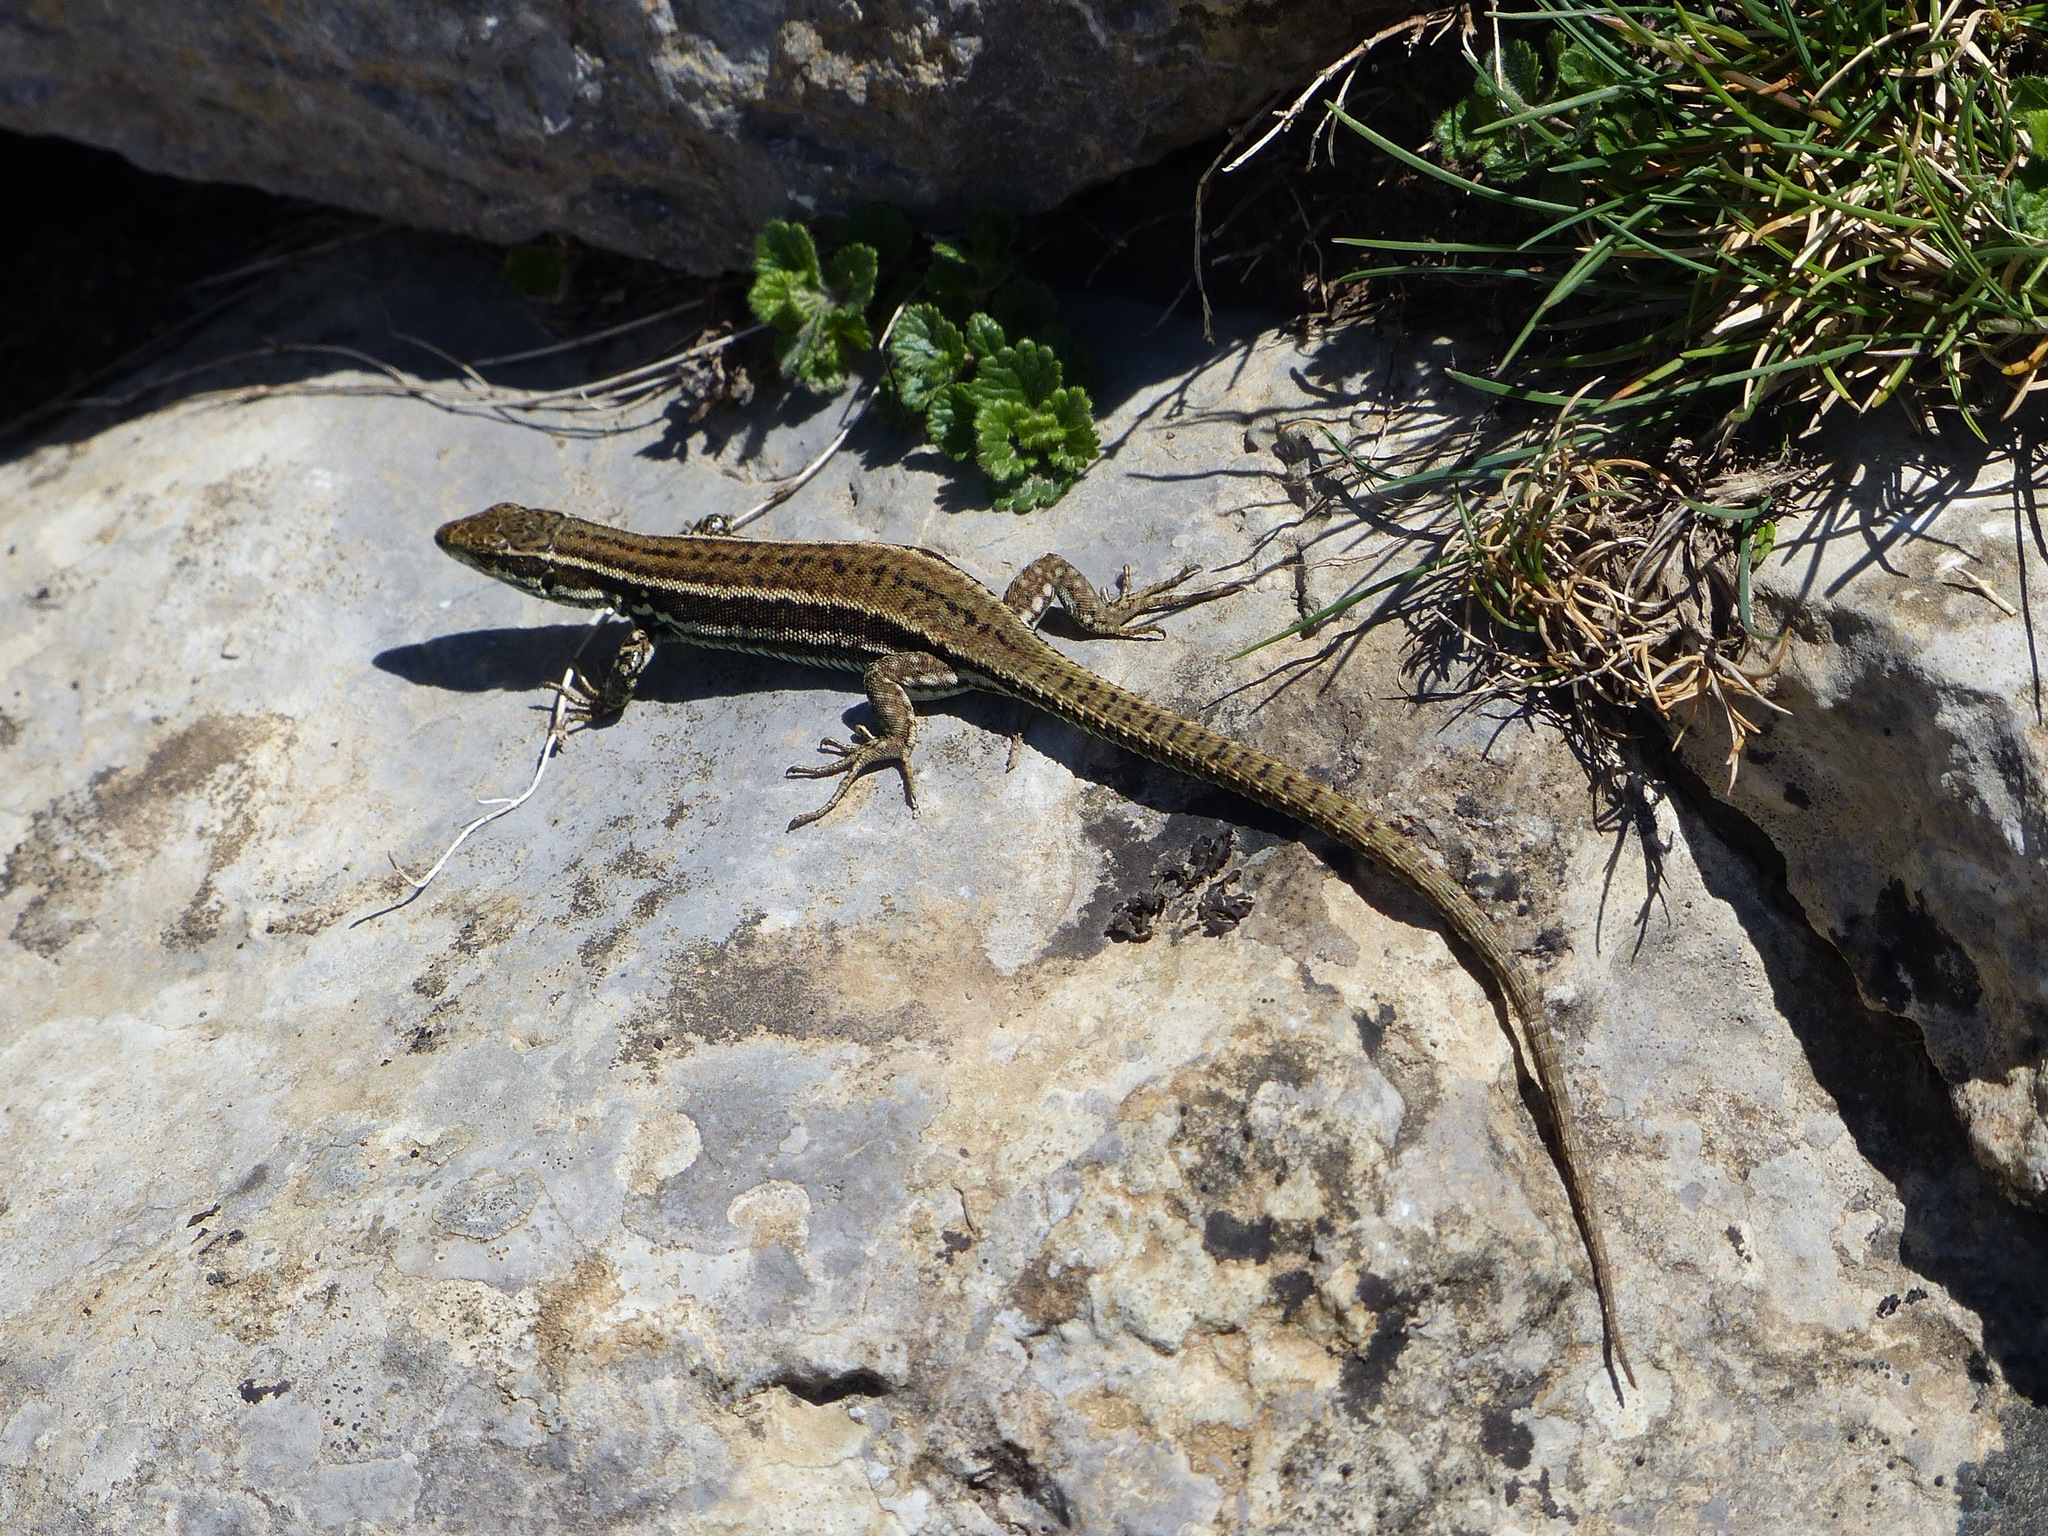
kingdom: Animalia
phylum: Chordata
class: Squamata
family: Lacertidae
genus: Podarcis
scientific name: Podarcis muralis
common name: Common wall lizard
